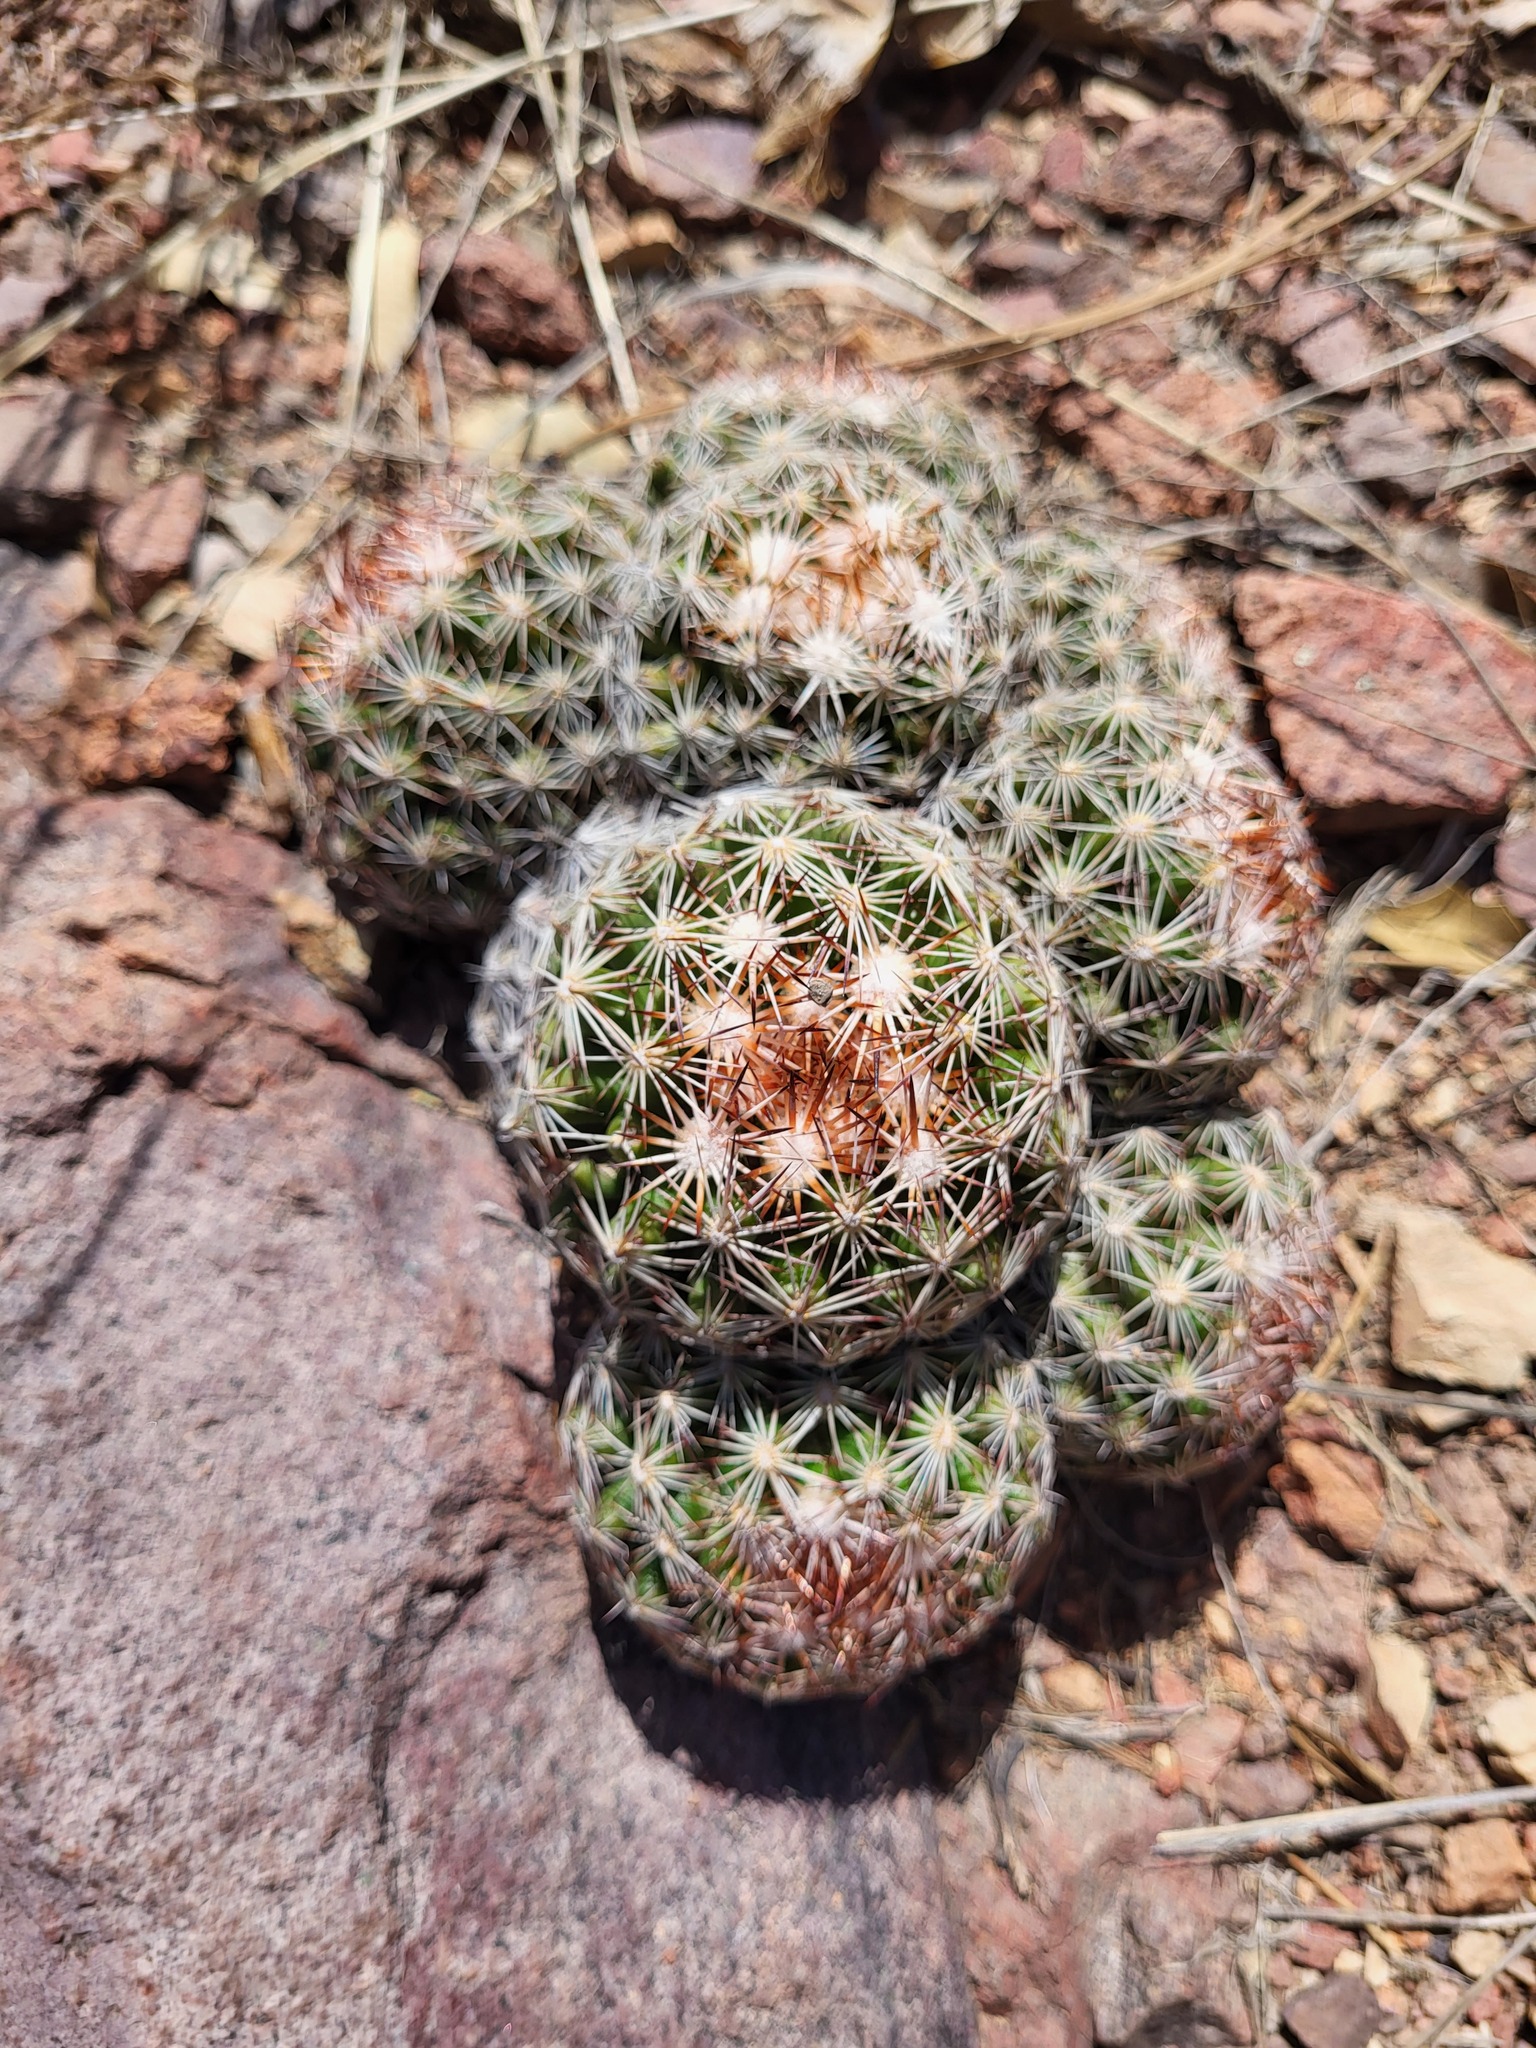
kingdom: Plantae
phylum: Tracheophyta
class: Magnoliopsida
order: Caryophyllales
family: Cactaceae
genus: Pelecyphora
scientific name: Pelecyphora vivipara
